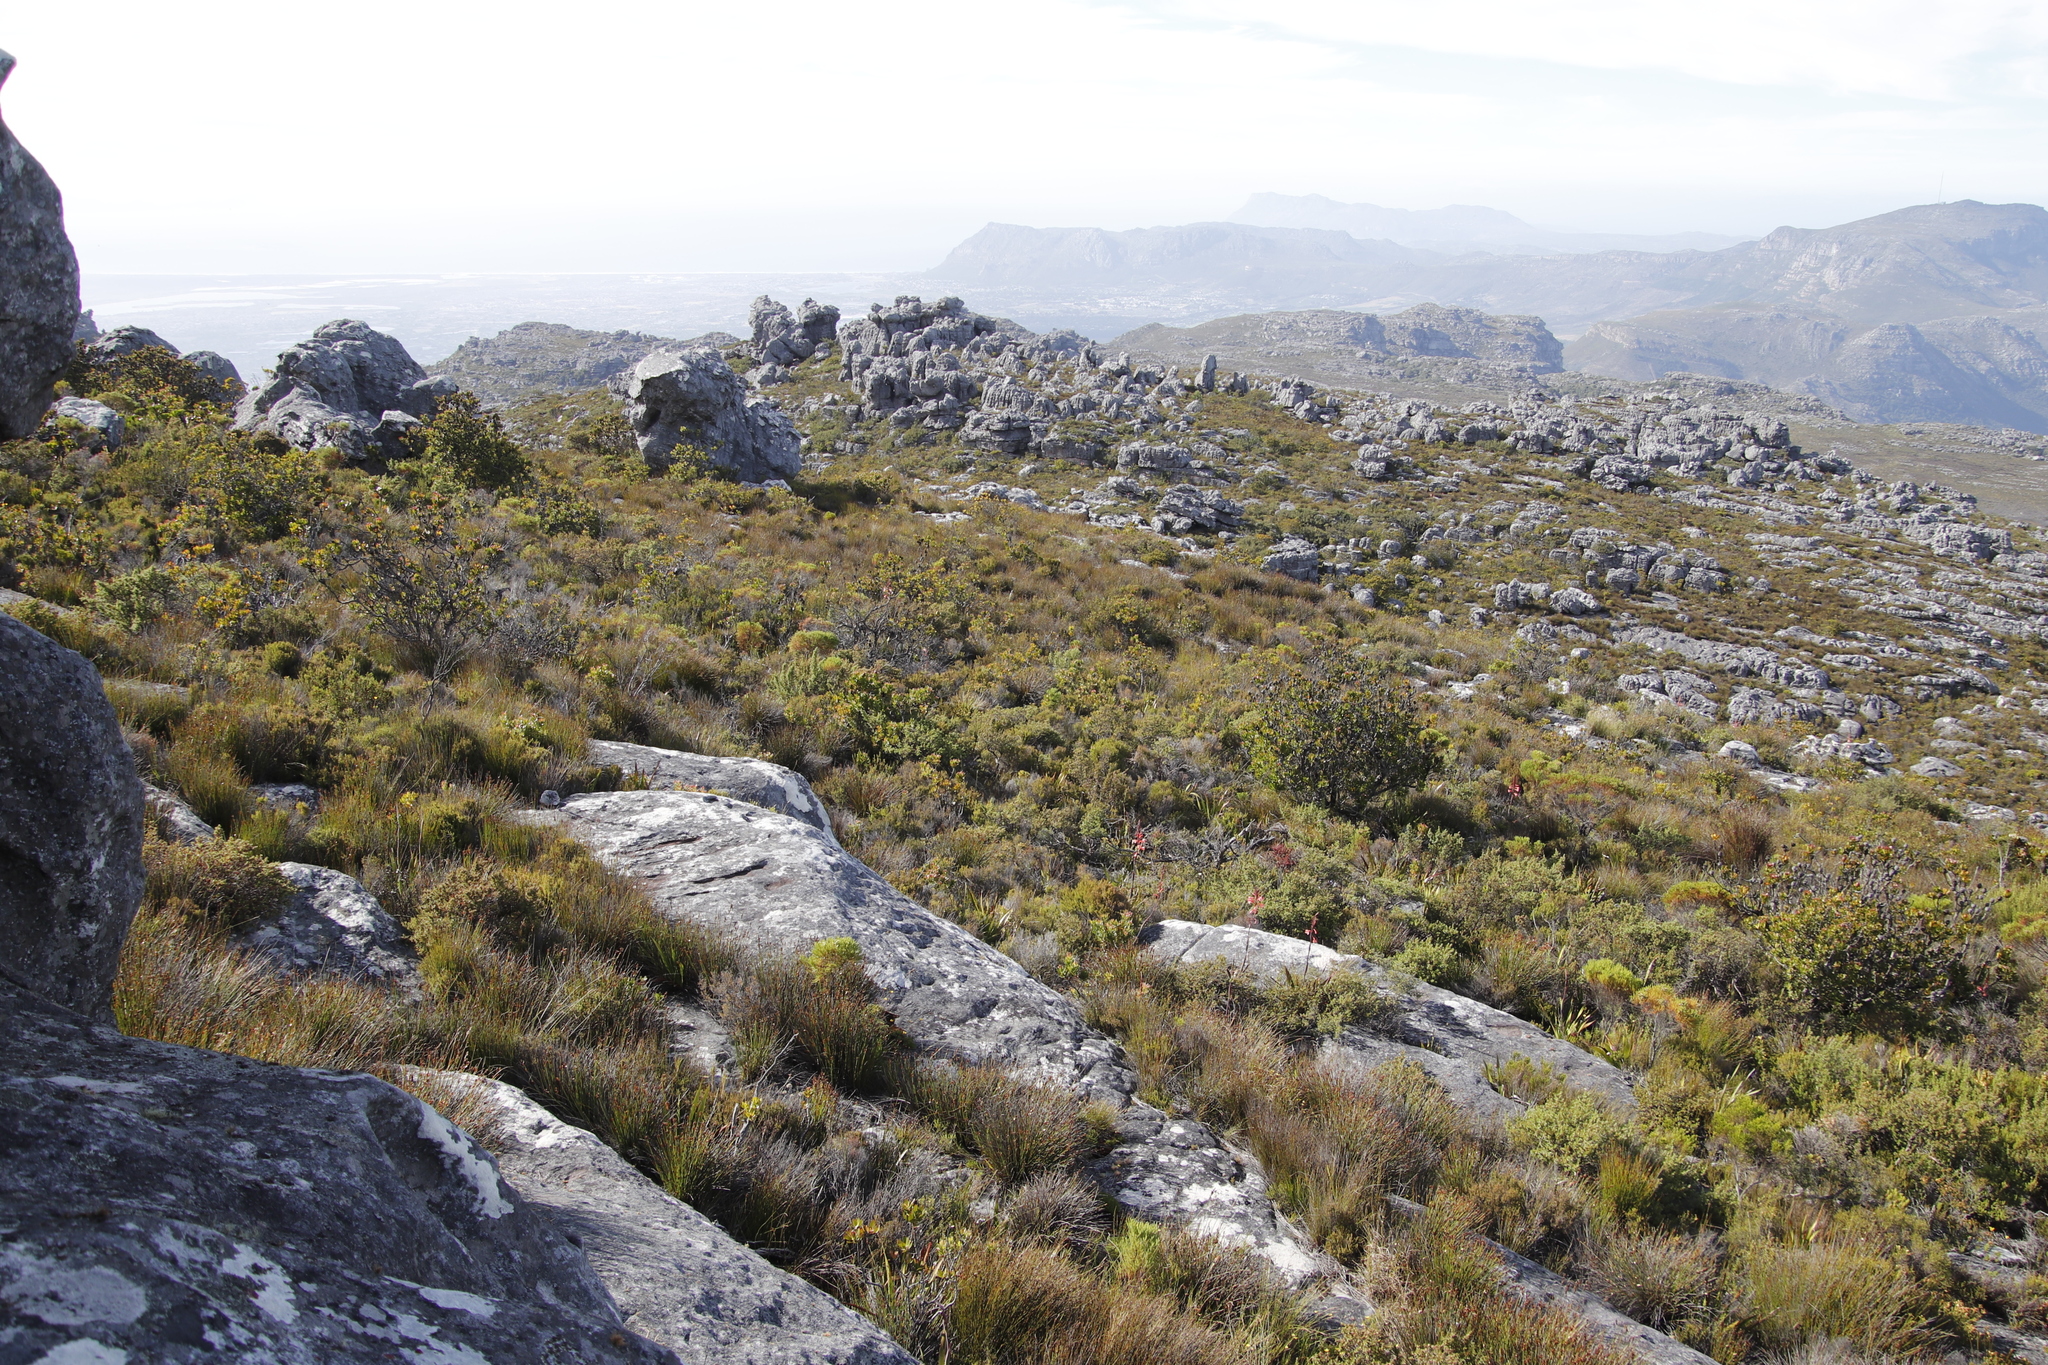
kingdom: Plantae
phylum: Tracheophyta
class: Magnoliopsida
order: Proteales
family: Proteaceae
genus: Leucadendron
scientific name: Leucadendron strobilinum
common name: Mountain rose
